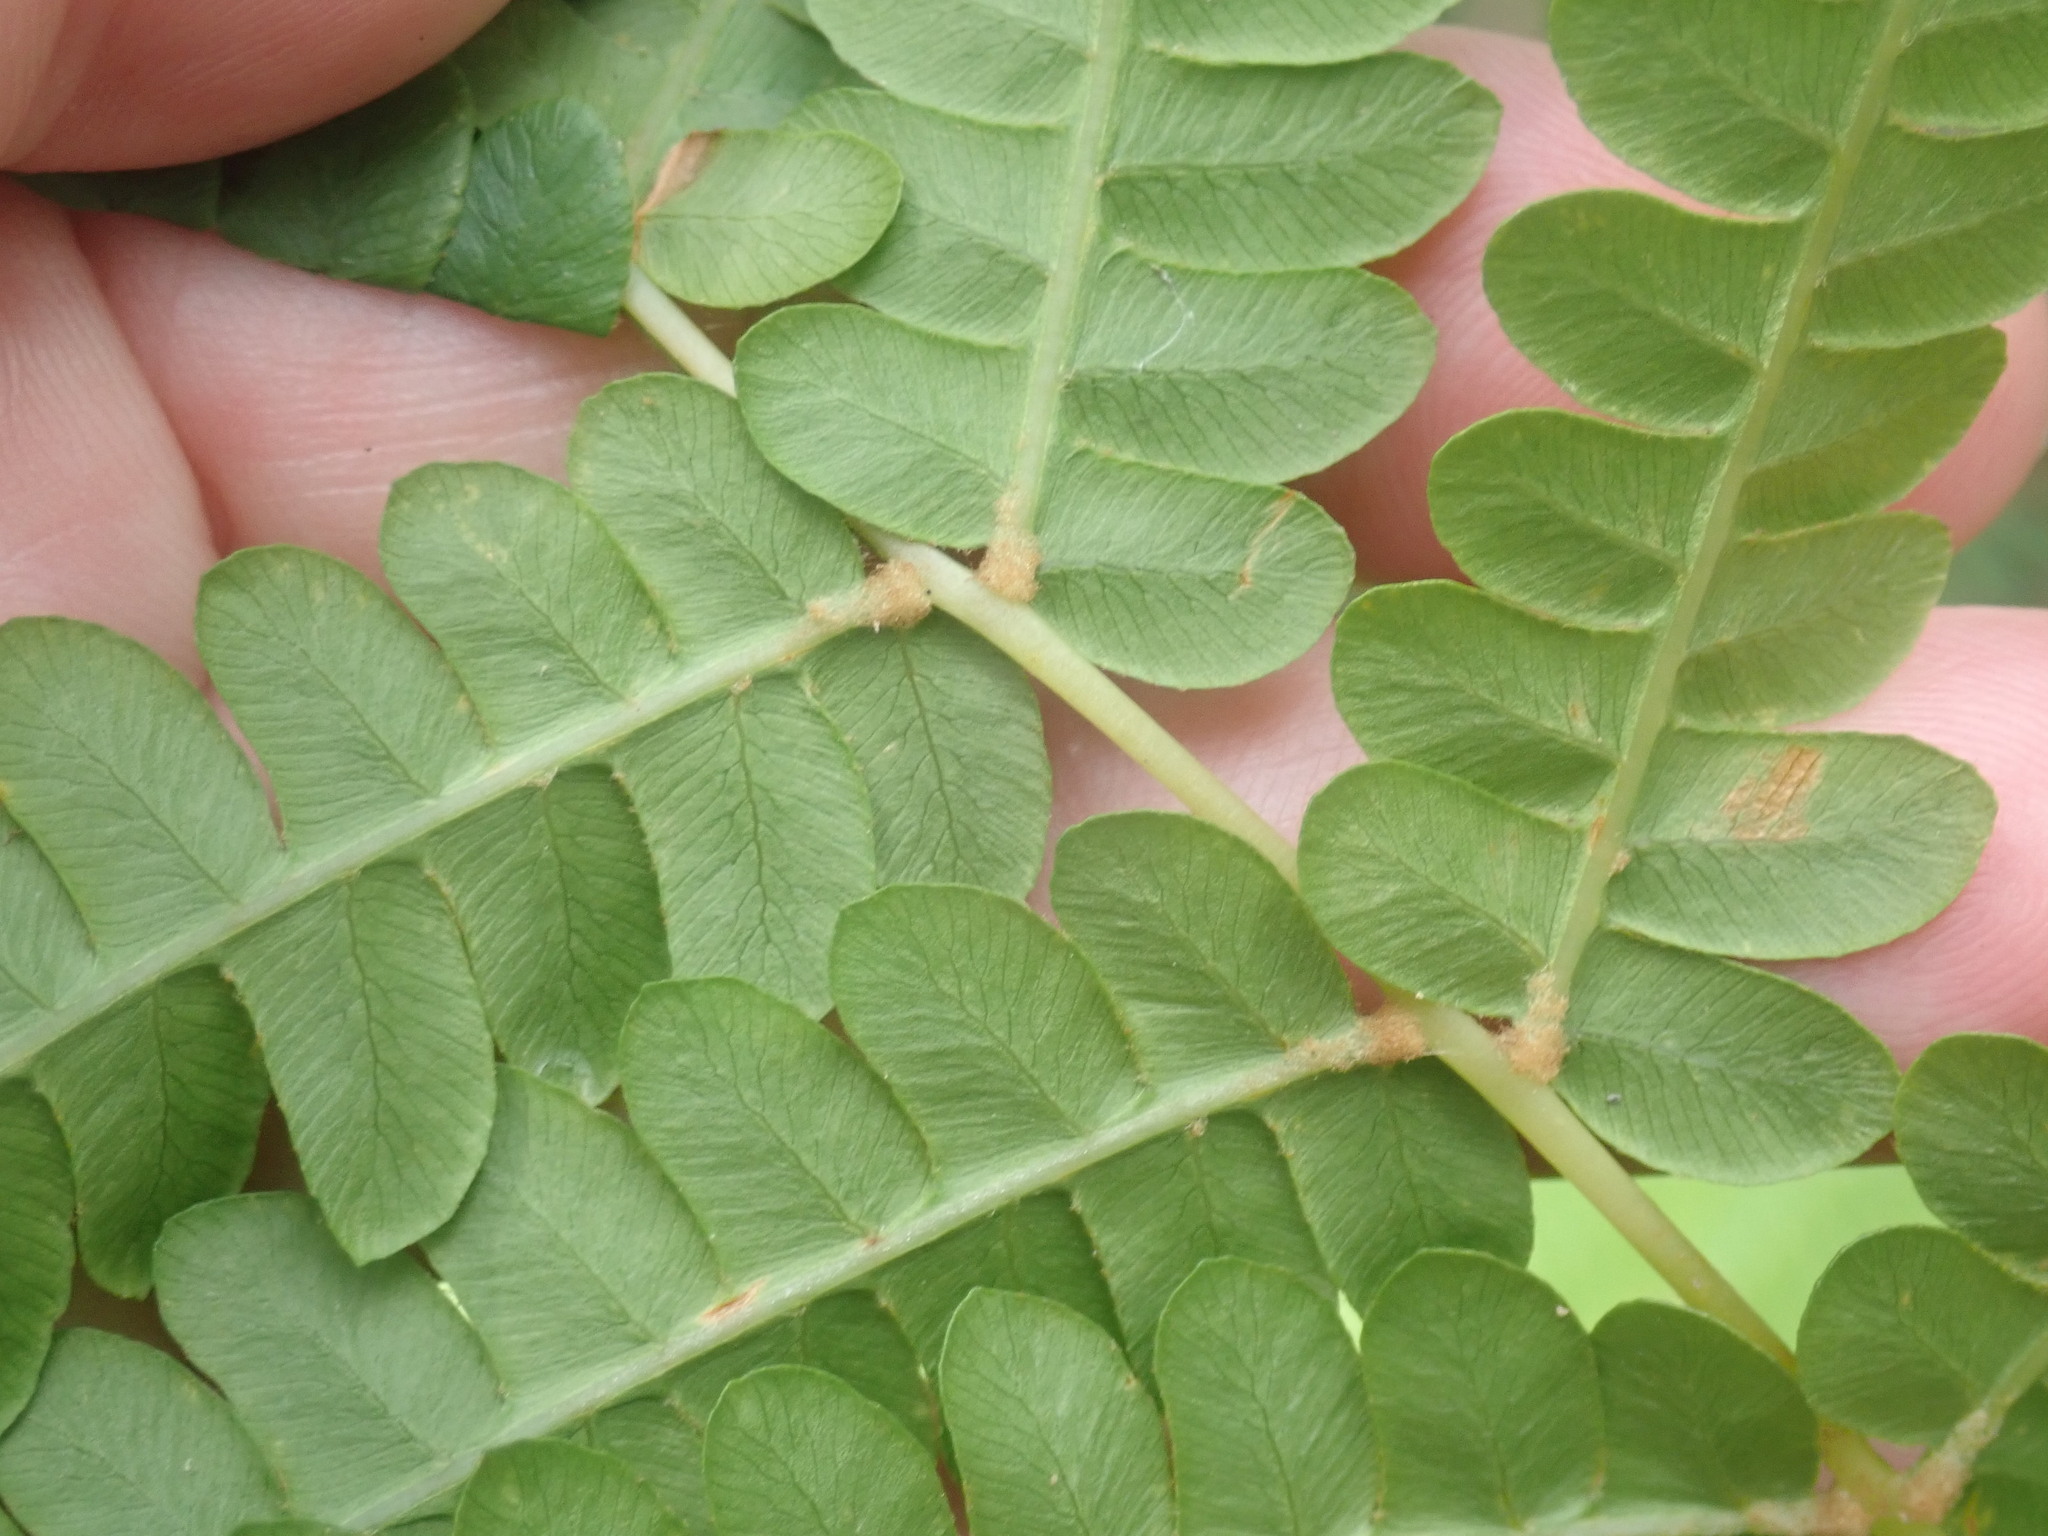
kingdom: Plantae
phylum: Tracheophyta
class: Polypodiopsida
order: Osmundales
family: Osmundaceae
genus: Osmundastrum
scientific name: Osmundastrum cinnamomeum
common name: Cinnamon fern
